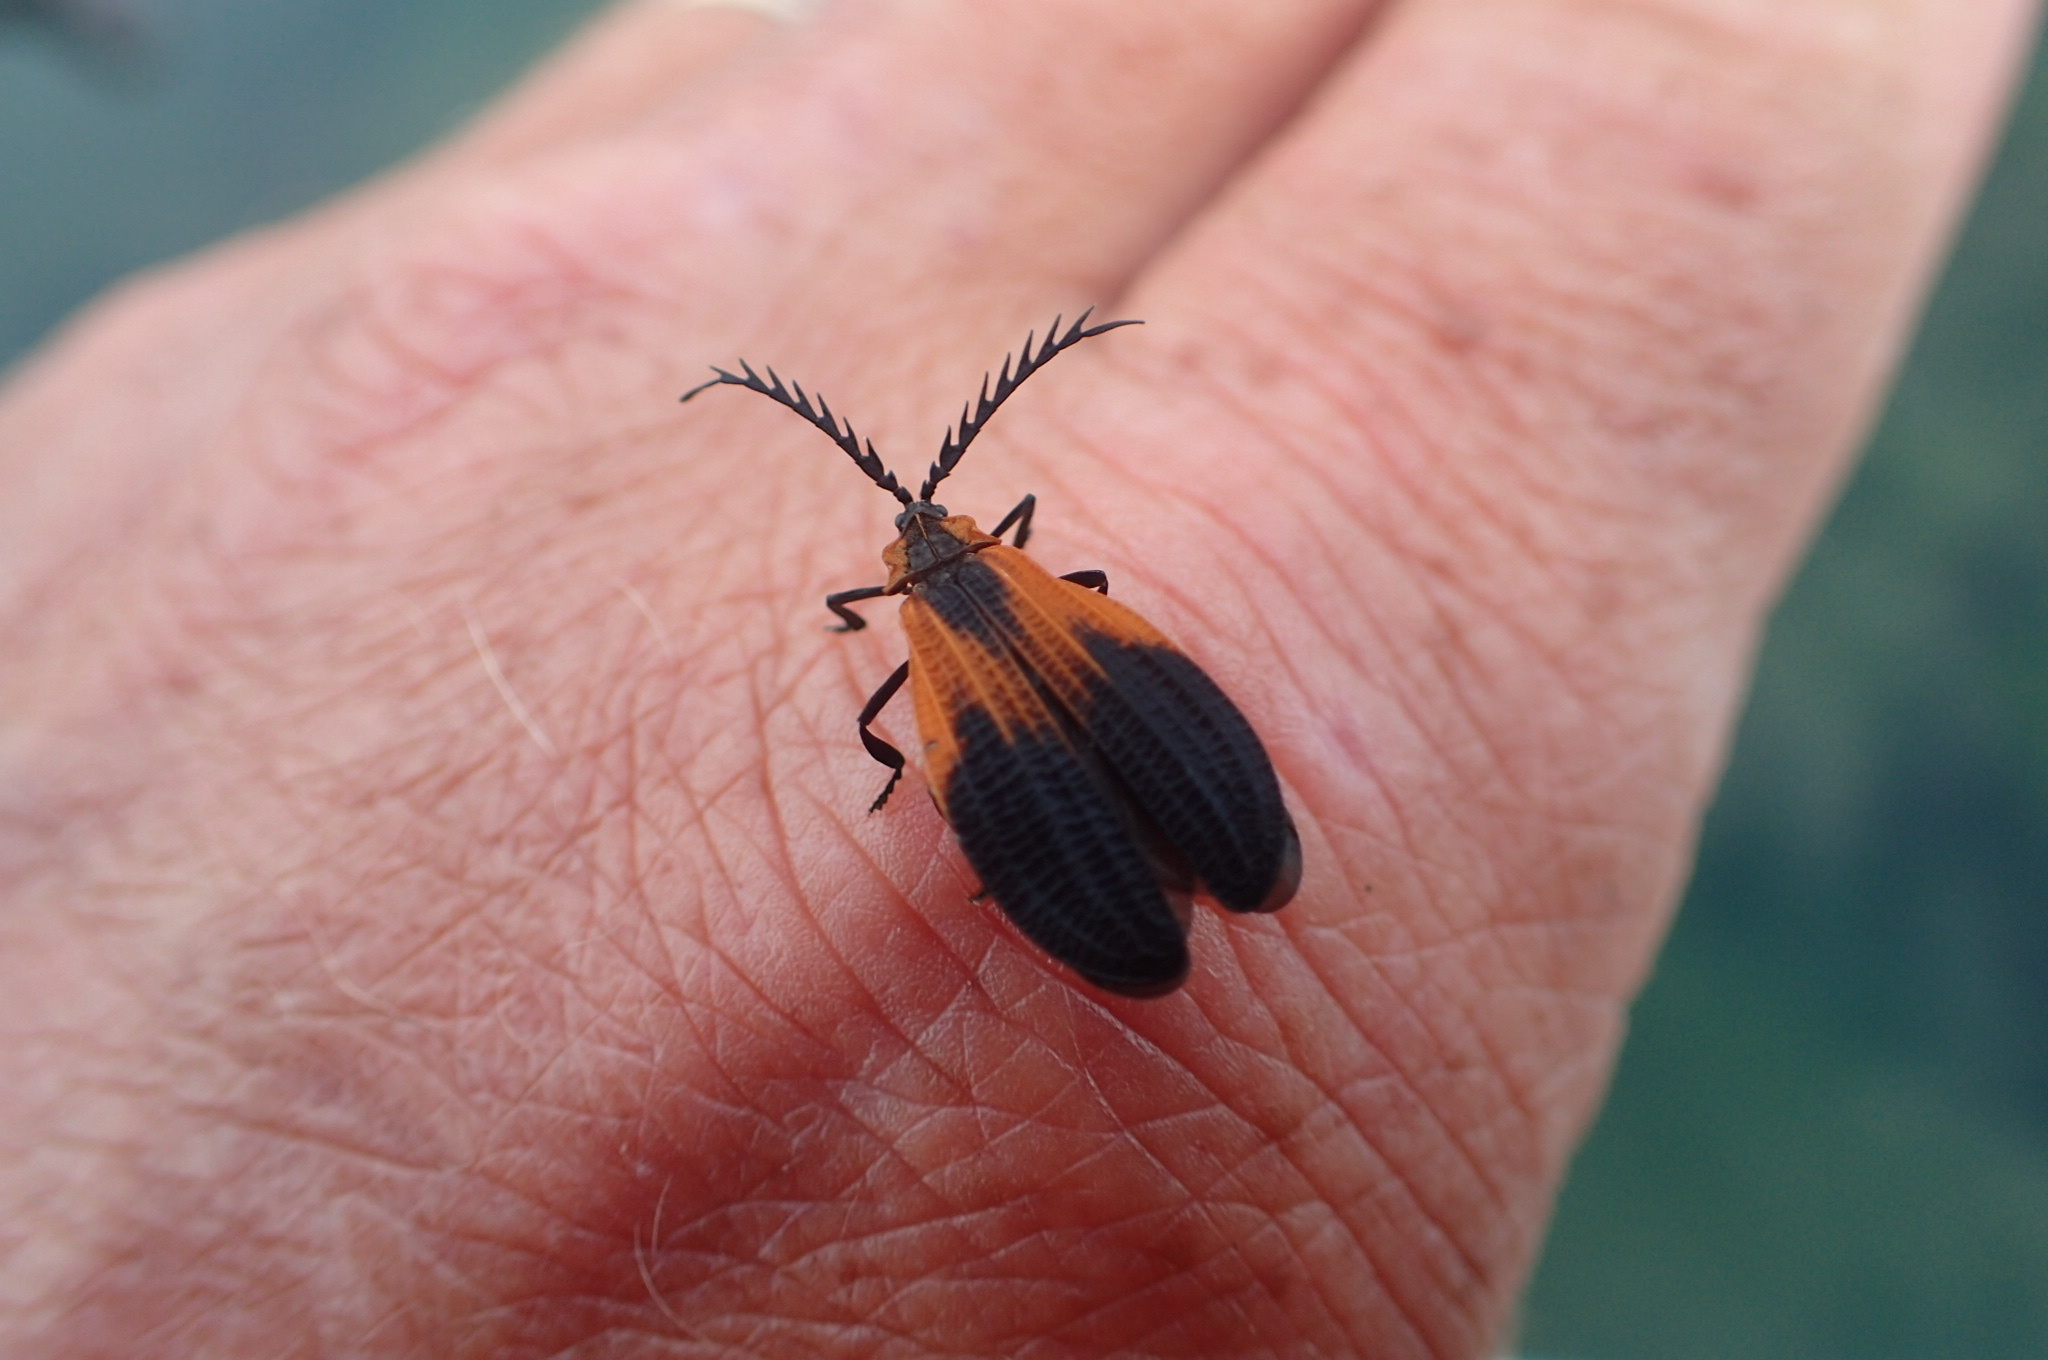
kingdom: Animalia
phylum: Arthropoda
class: Insecta
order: Coleoptera
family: Lycidae
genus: Caenia
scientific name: Caenia dimidiata
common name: Terminal net-winged beetle
